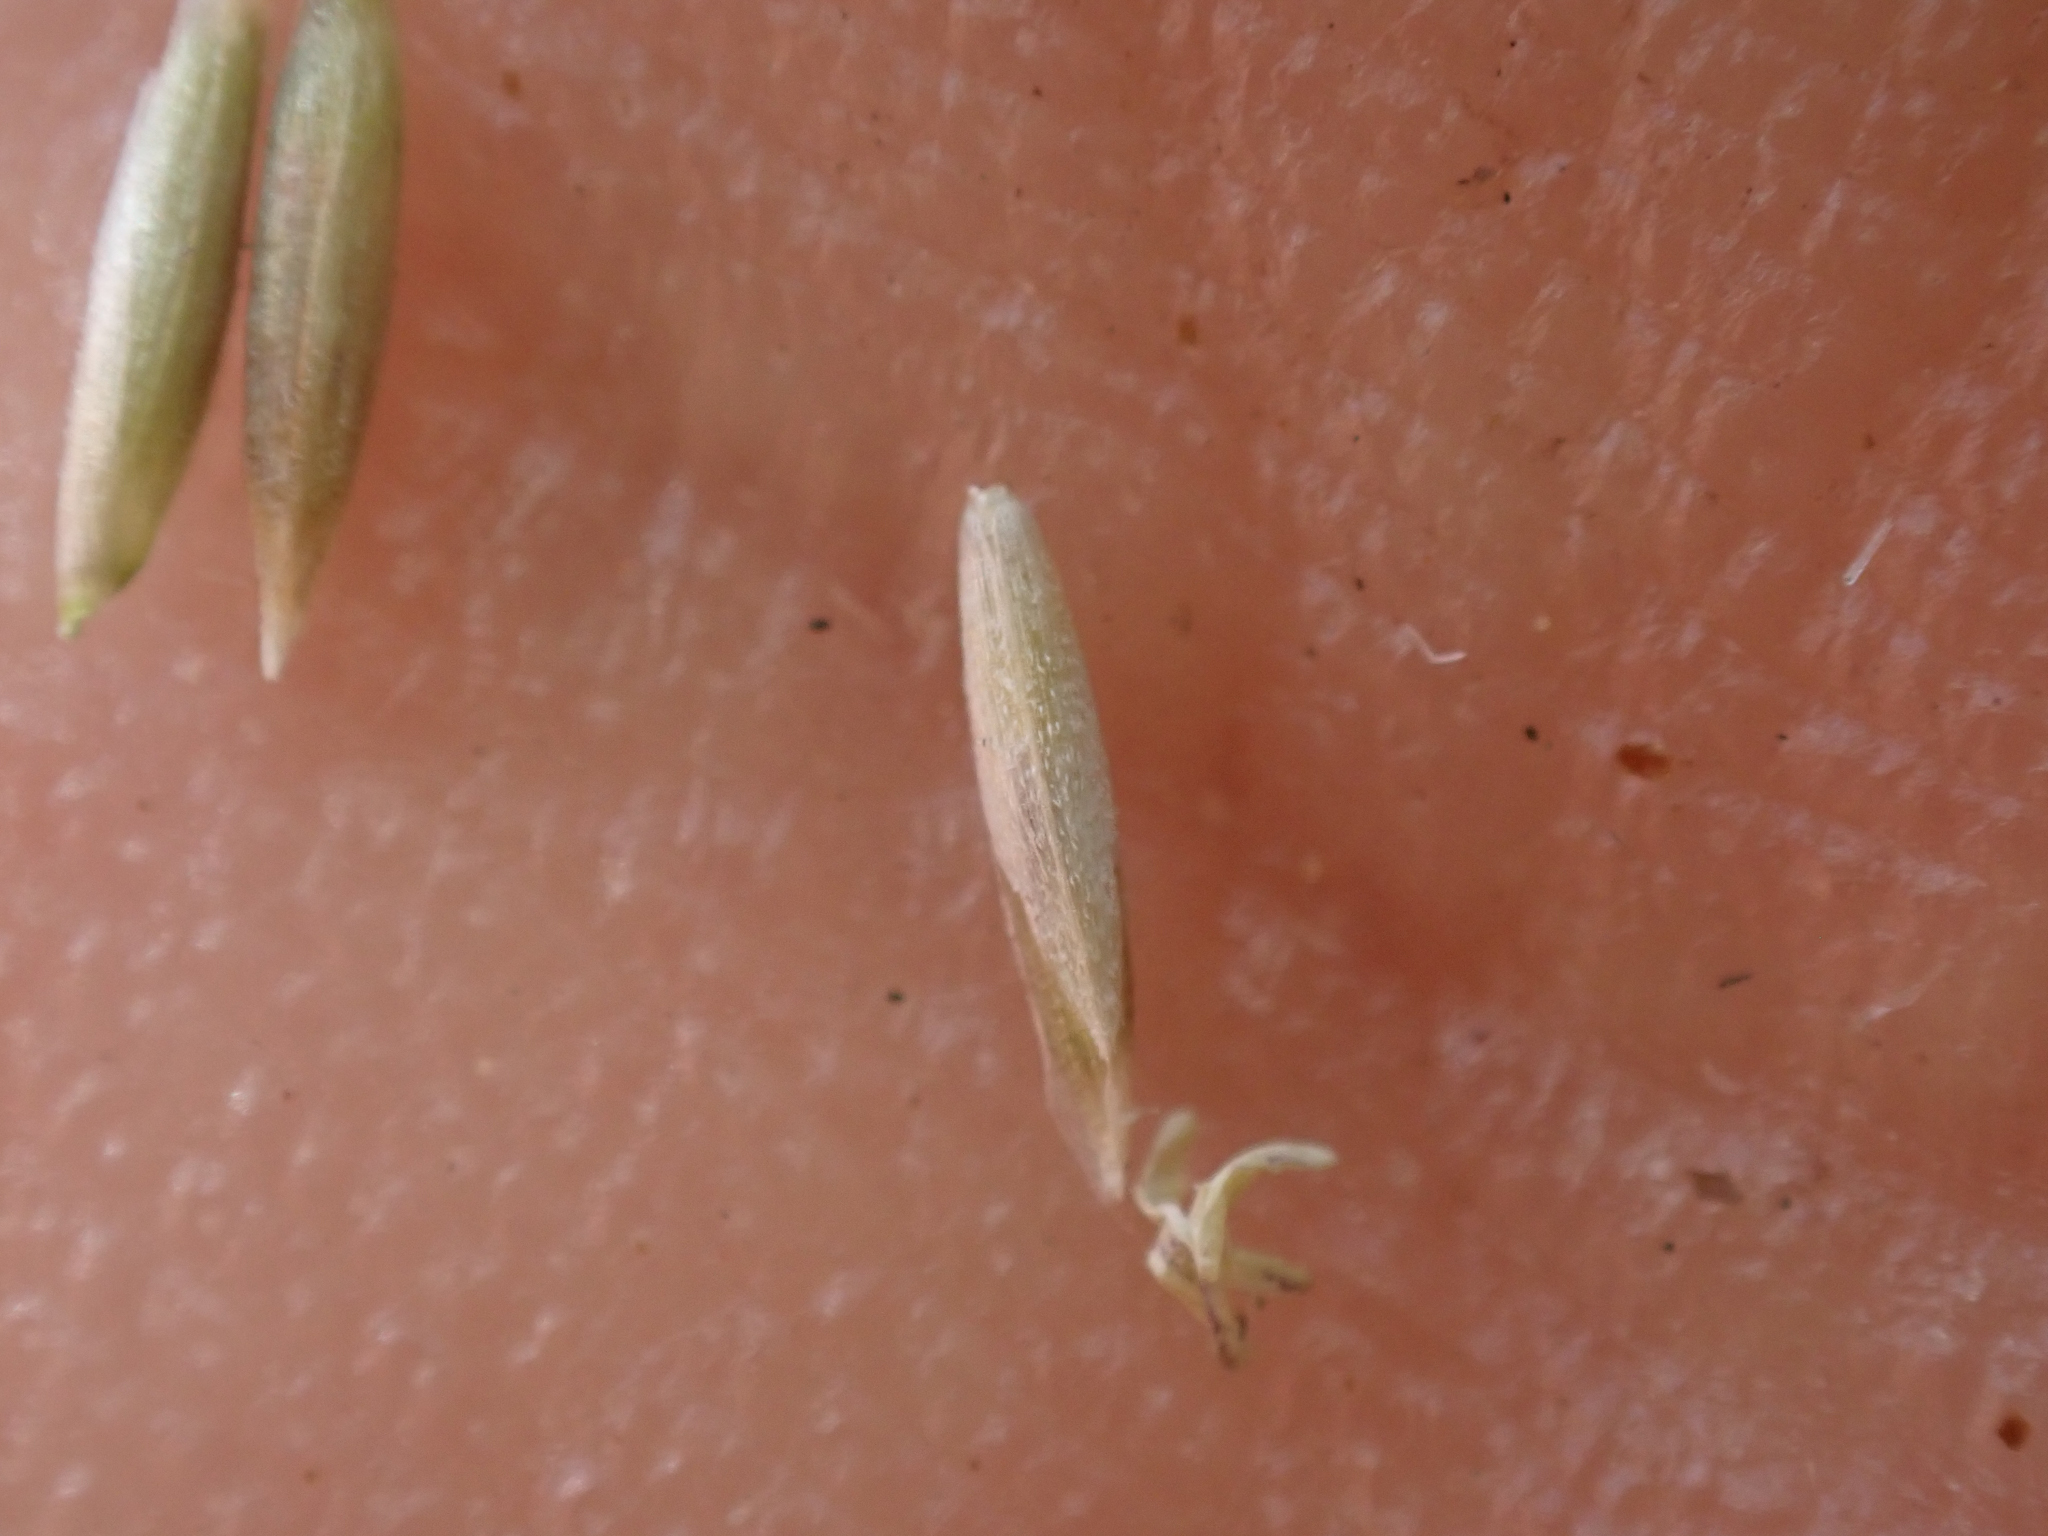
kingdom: Plantae
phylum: Tracheophyta
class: Liliopsida
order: Poales
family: Poaceae
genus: Muhlenbergia
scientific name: Muhlenbergia rigens
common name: Deer grass
